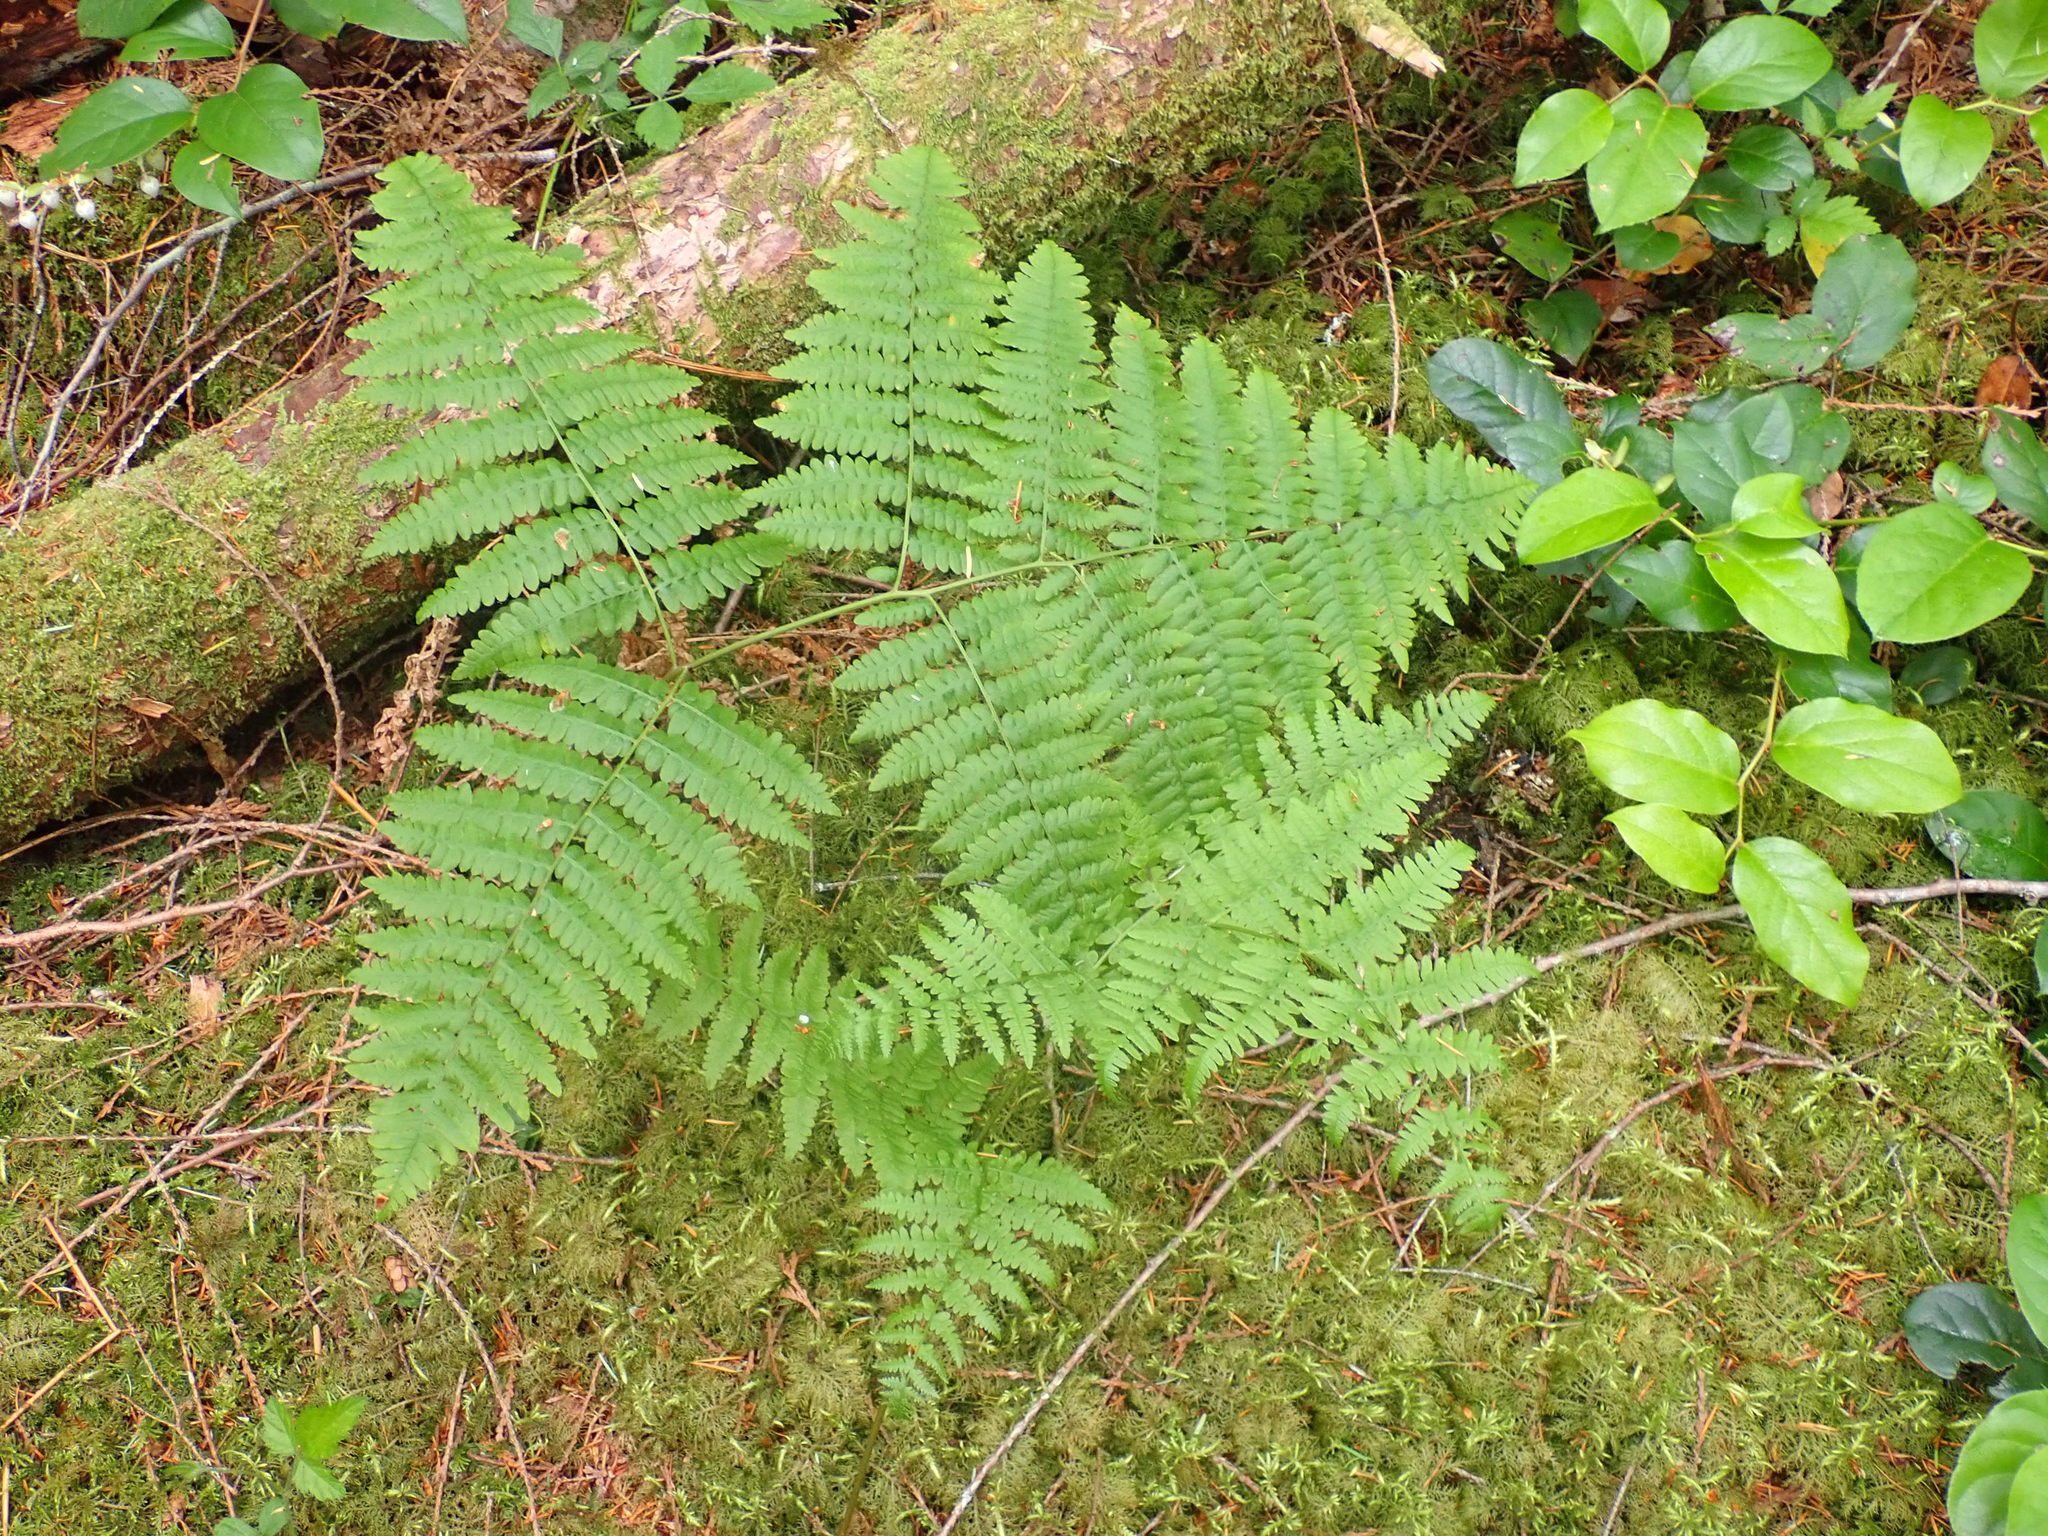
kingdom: Plantae
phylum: Tracheophyta
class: Polypodiopsida
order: Polypodiales
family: Dennstaedtiaceae
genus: Pteridium
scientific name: Pteridium aquilinum
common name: Bracken
